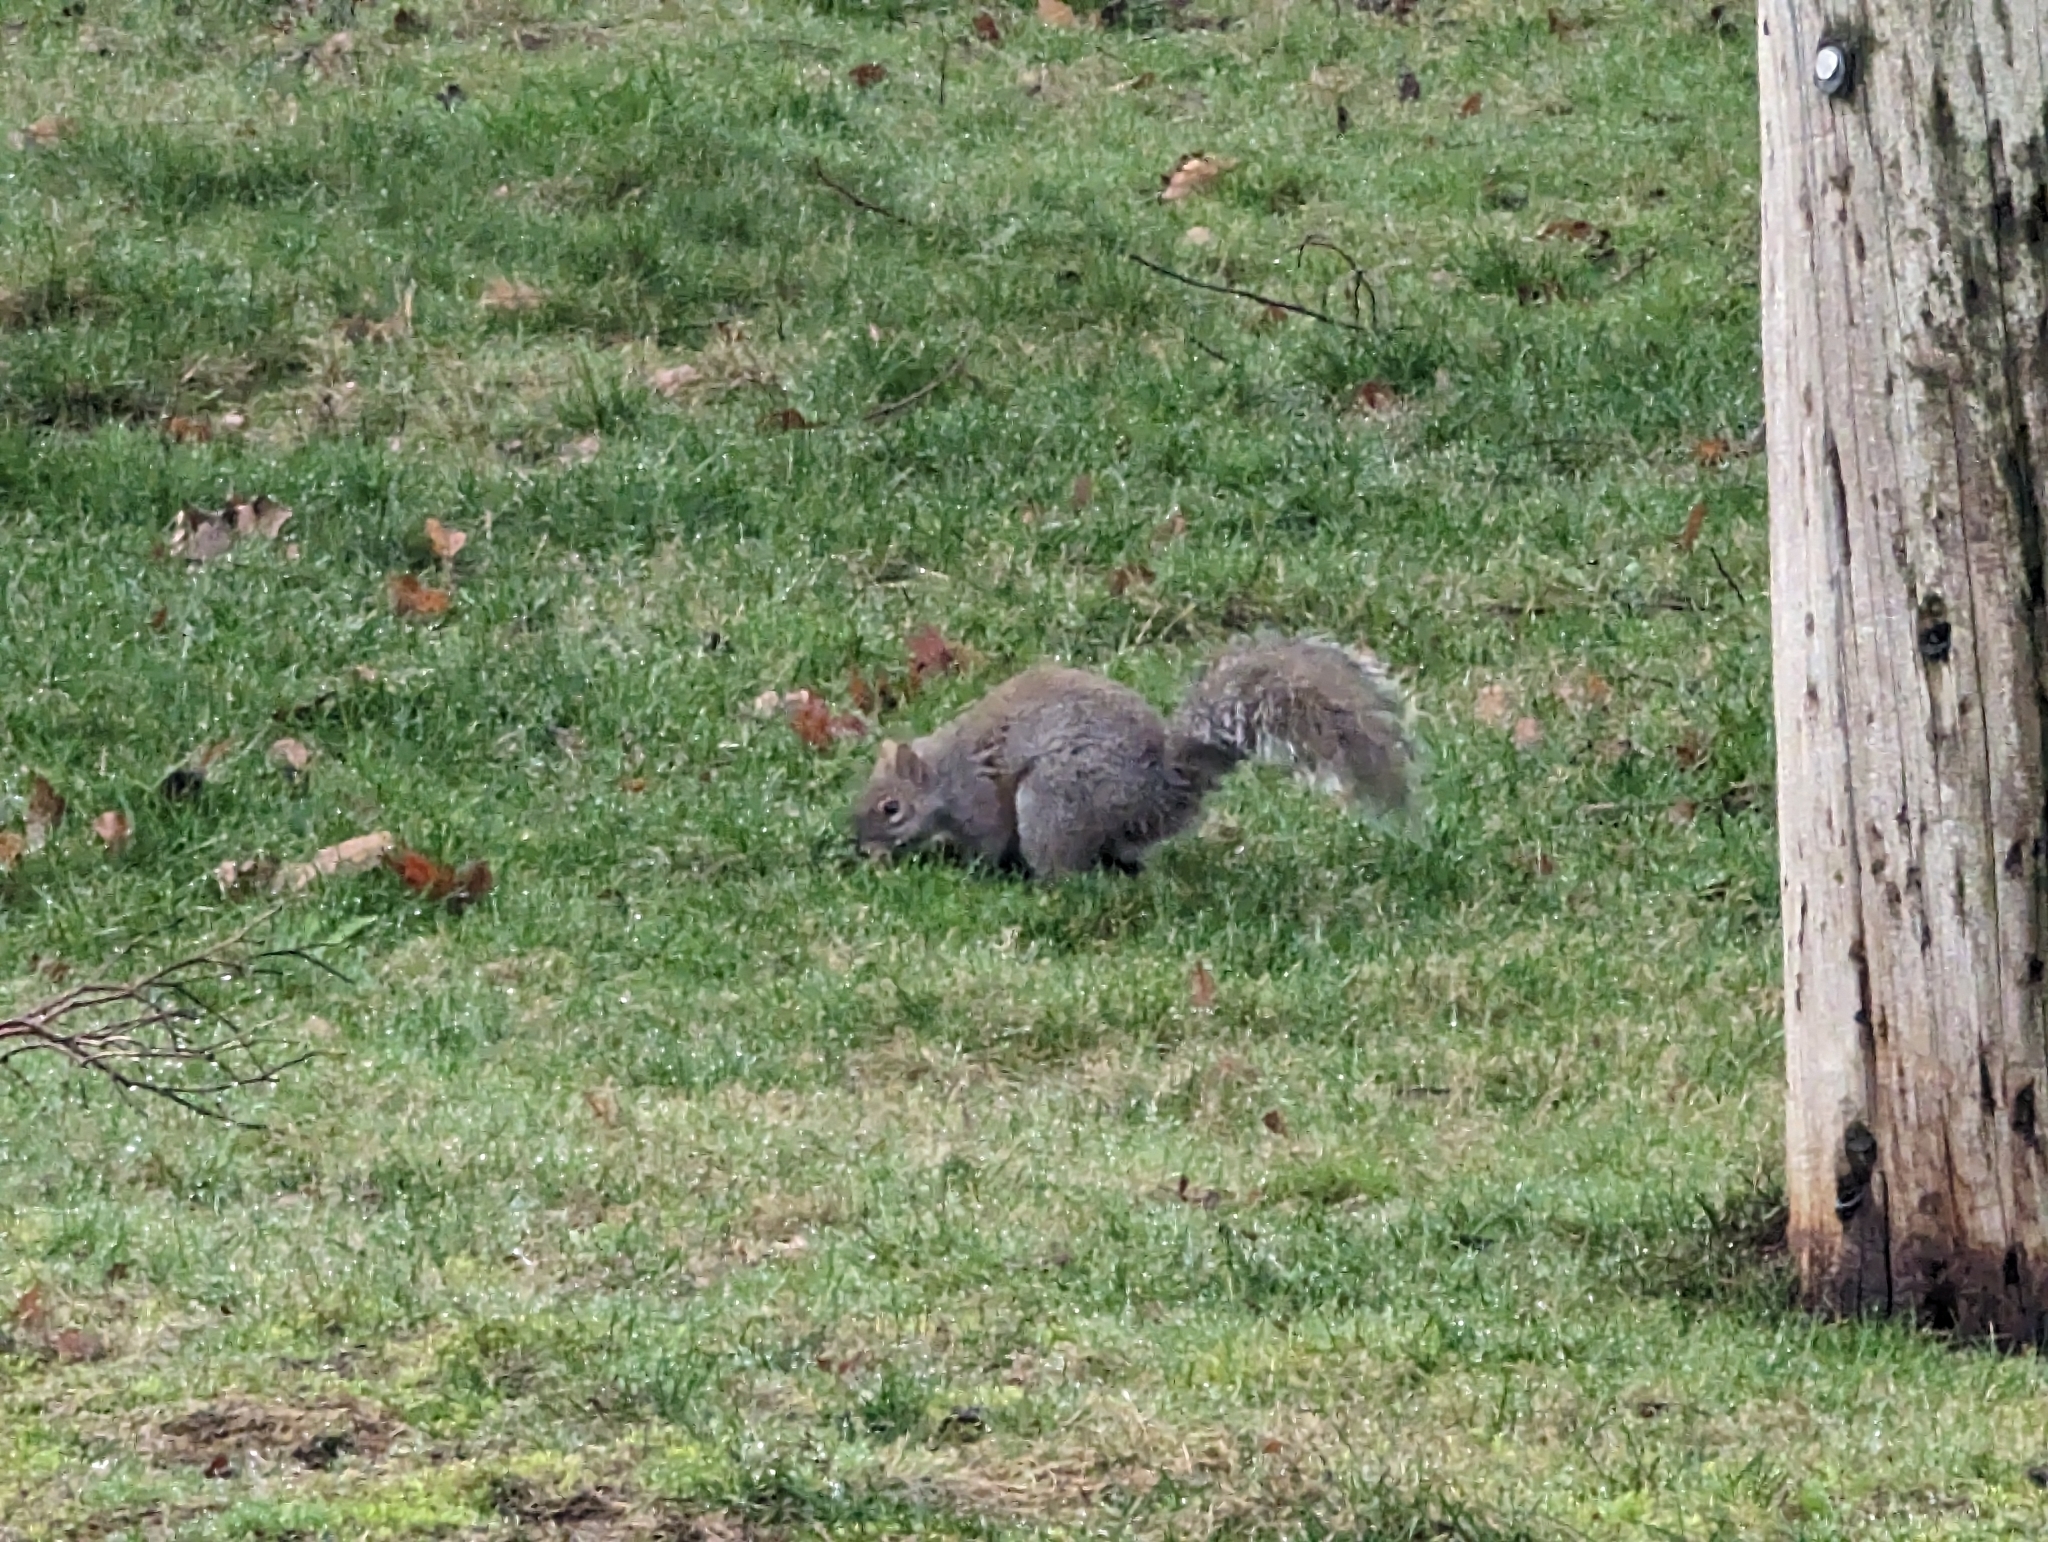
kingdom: Animalia
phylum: Chordata
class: Mammalia
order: Rodentia
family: Sciuridae
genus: Sciurus
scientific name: Sciurus carolinensis
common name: Eastern gray squirrel
